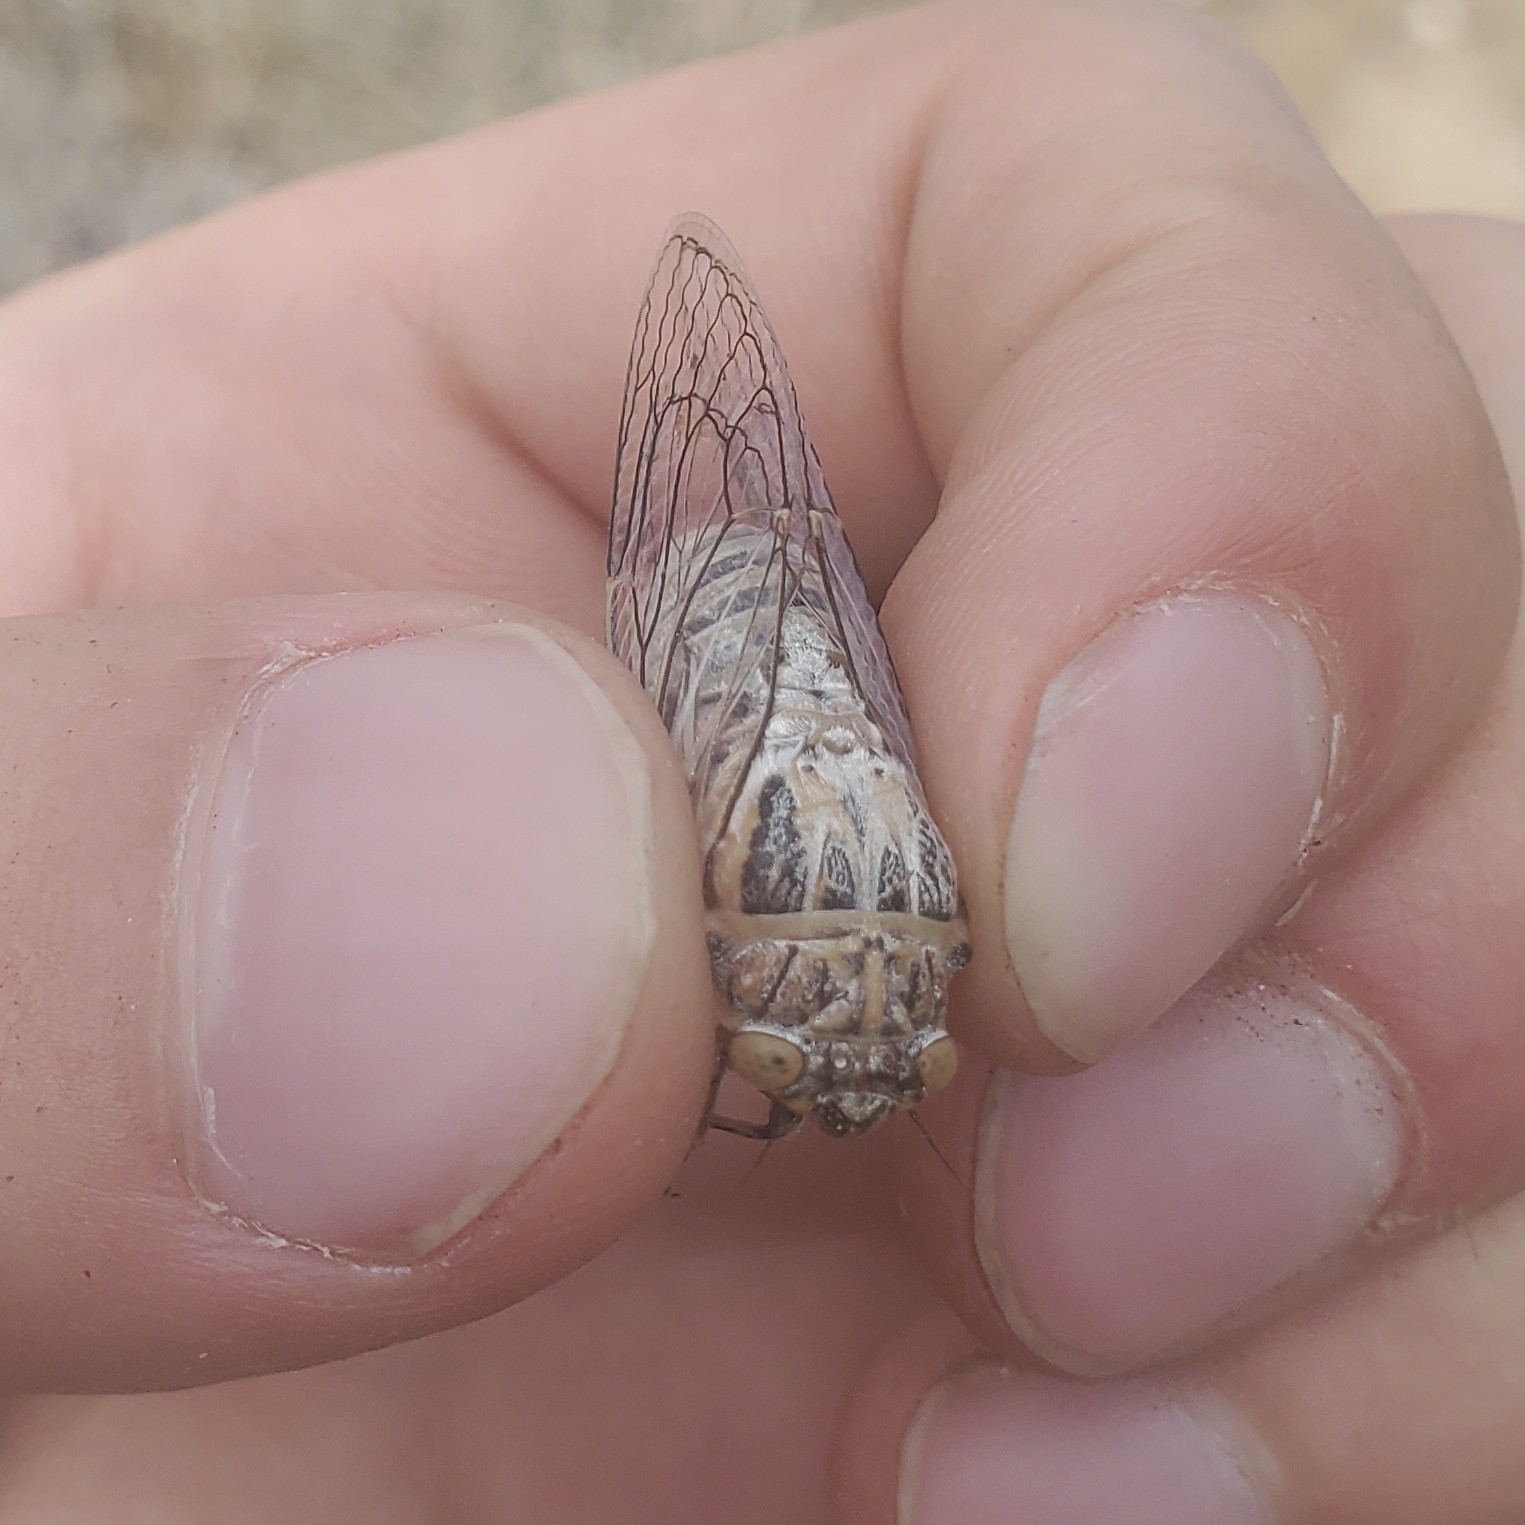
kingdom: Animalia
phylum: Arthropoda
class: Insecta
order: Hemiptera
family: Cicadidae
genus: Clidophleps
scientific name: Clidophleps vagans
